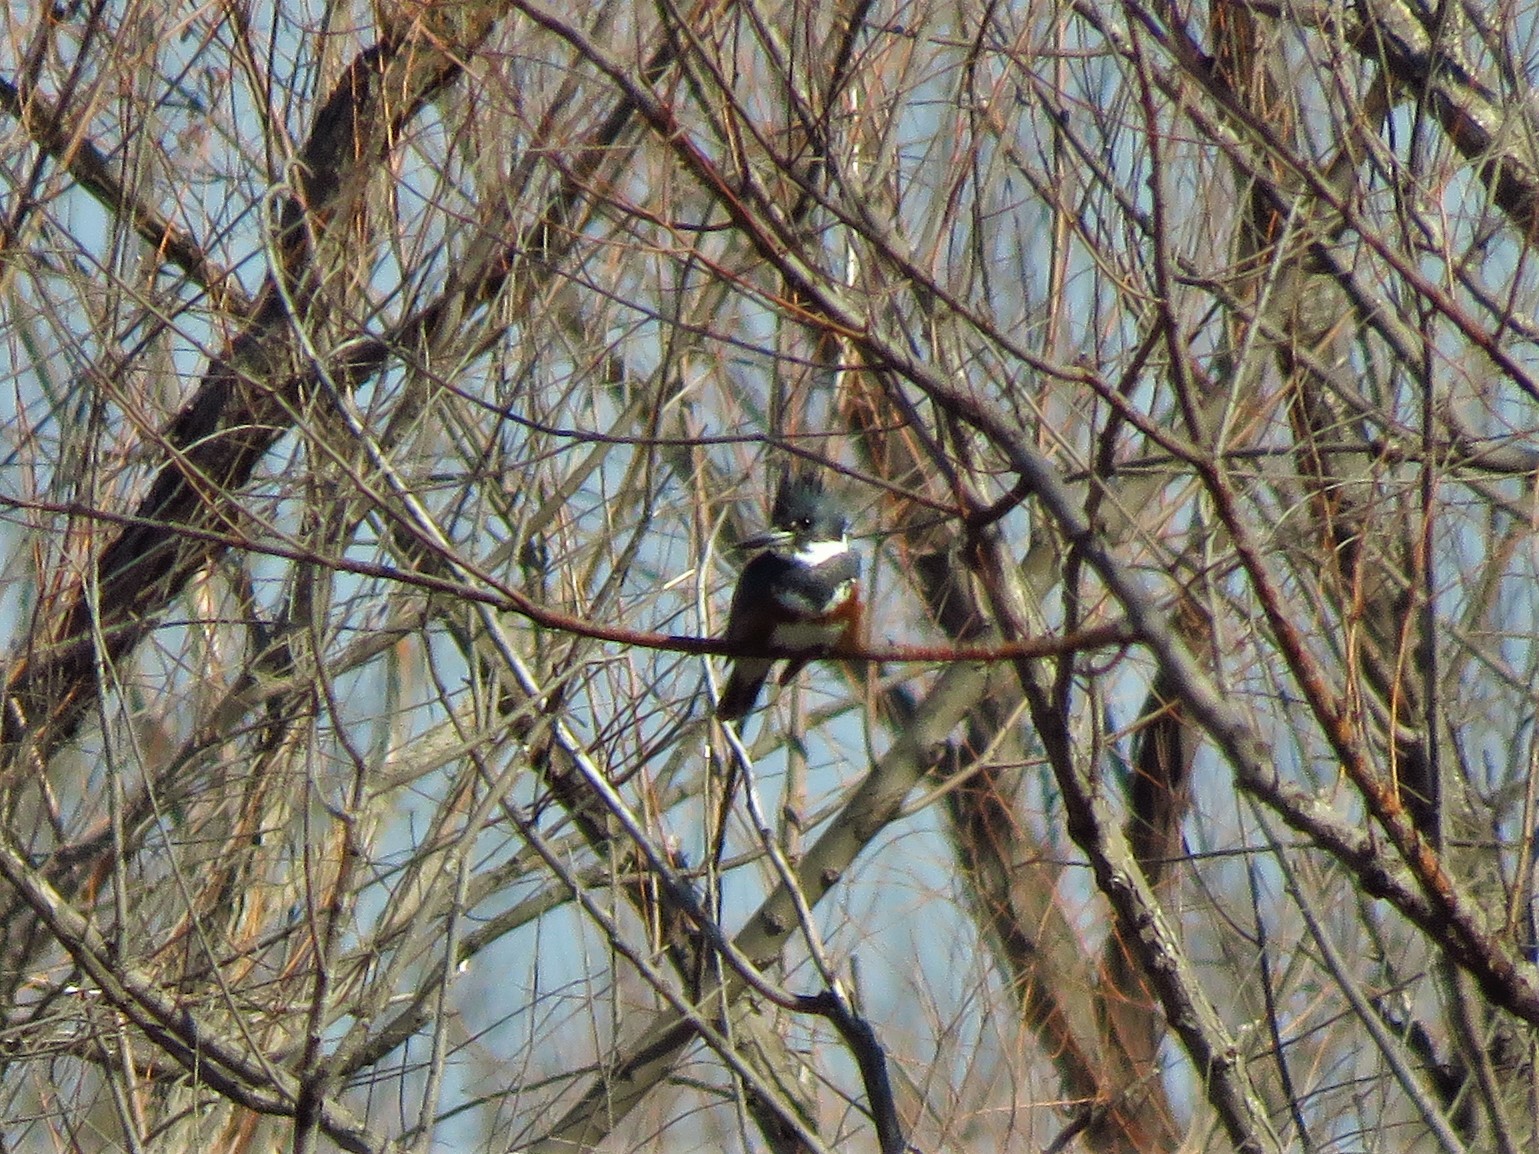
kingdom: Animalia
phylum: Chordata
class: Aves
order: Coraciiformes
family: Alcedinidae
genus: Megaceryle
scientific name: Megaceryle alcyon
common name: Belted kingfisher
